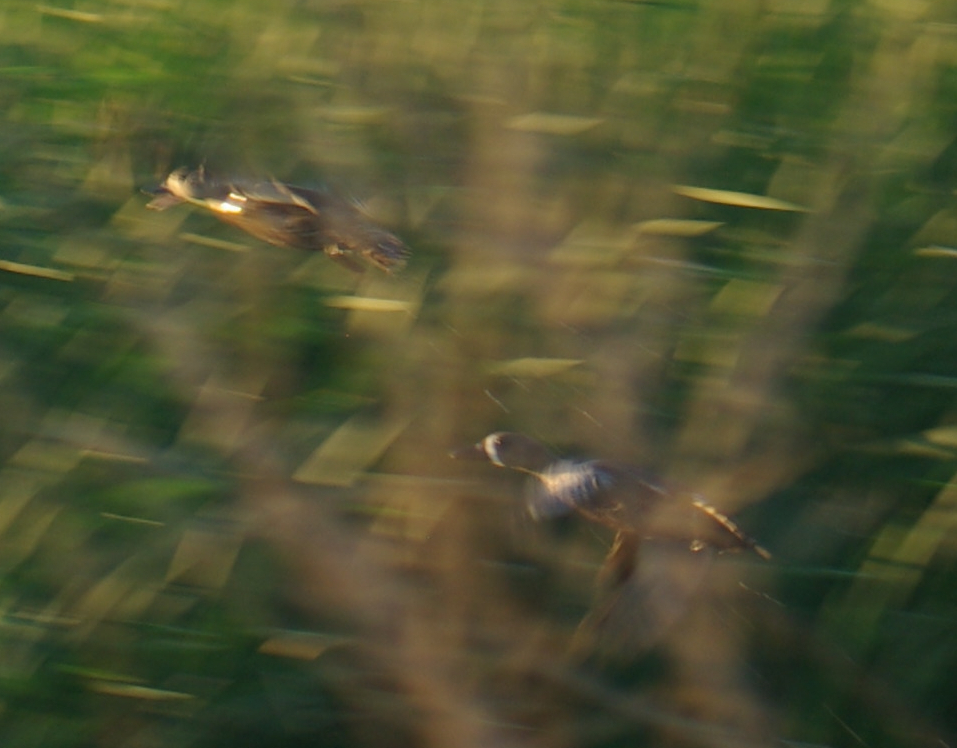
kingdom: Animalia
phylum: Chordata
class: Aves
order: Anseriformes
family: Anatidae
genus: Spatula
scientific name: Spatula discors
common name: Blue-winged teal
